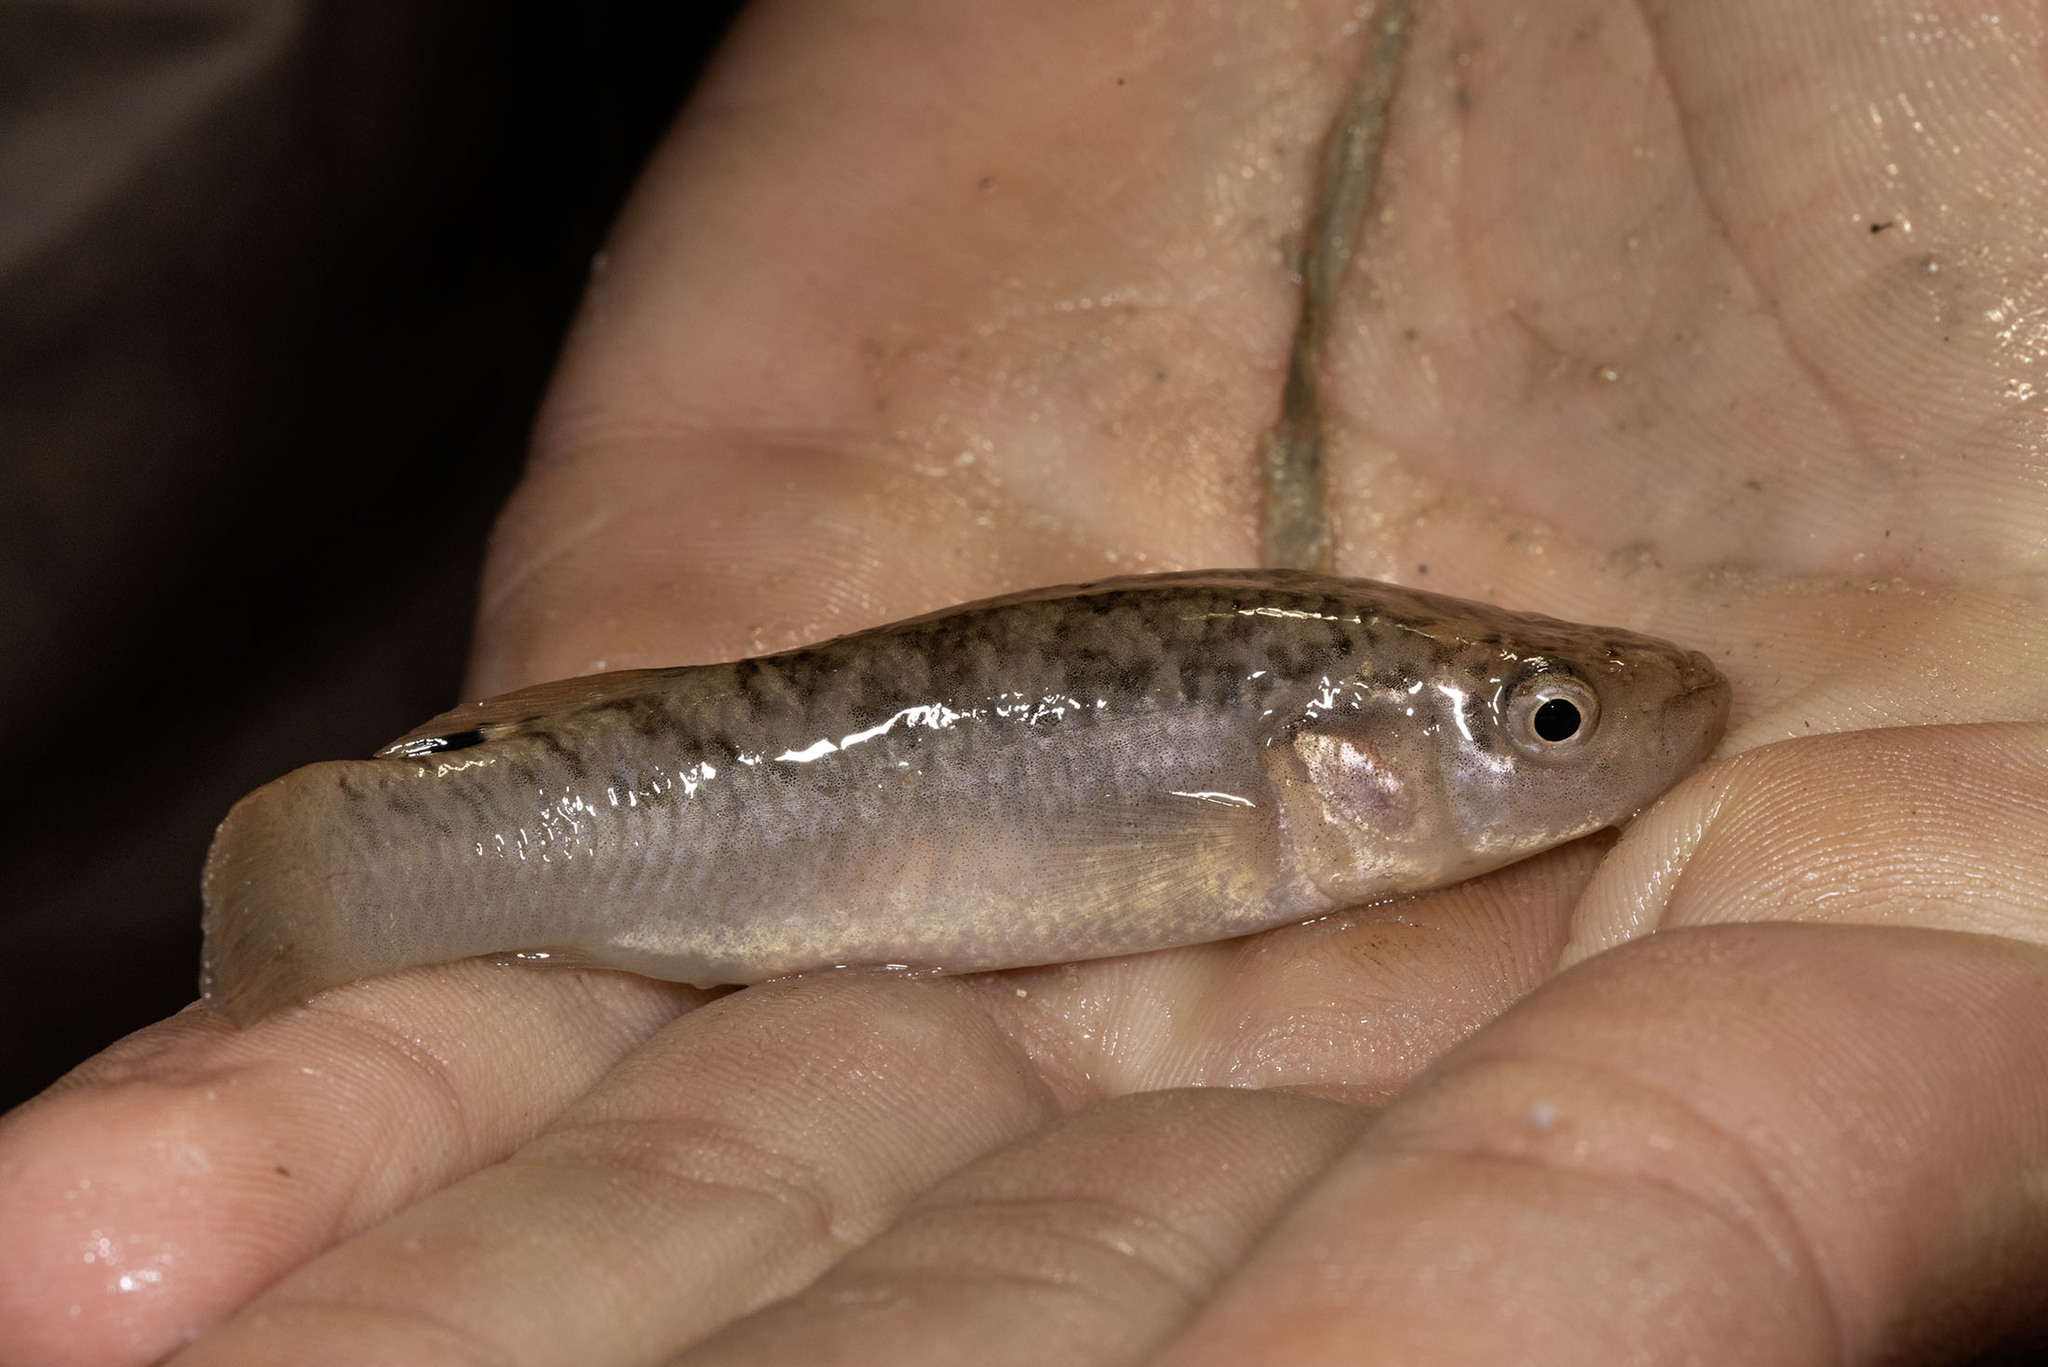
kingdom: Animalia
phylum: Chordata
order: Cyprinodontiformes
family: Fundulidae
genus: Fundulus
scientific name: Fundulus confluentus
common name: Killifish
